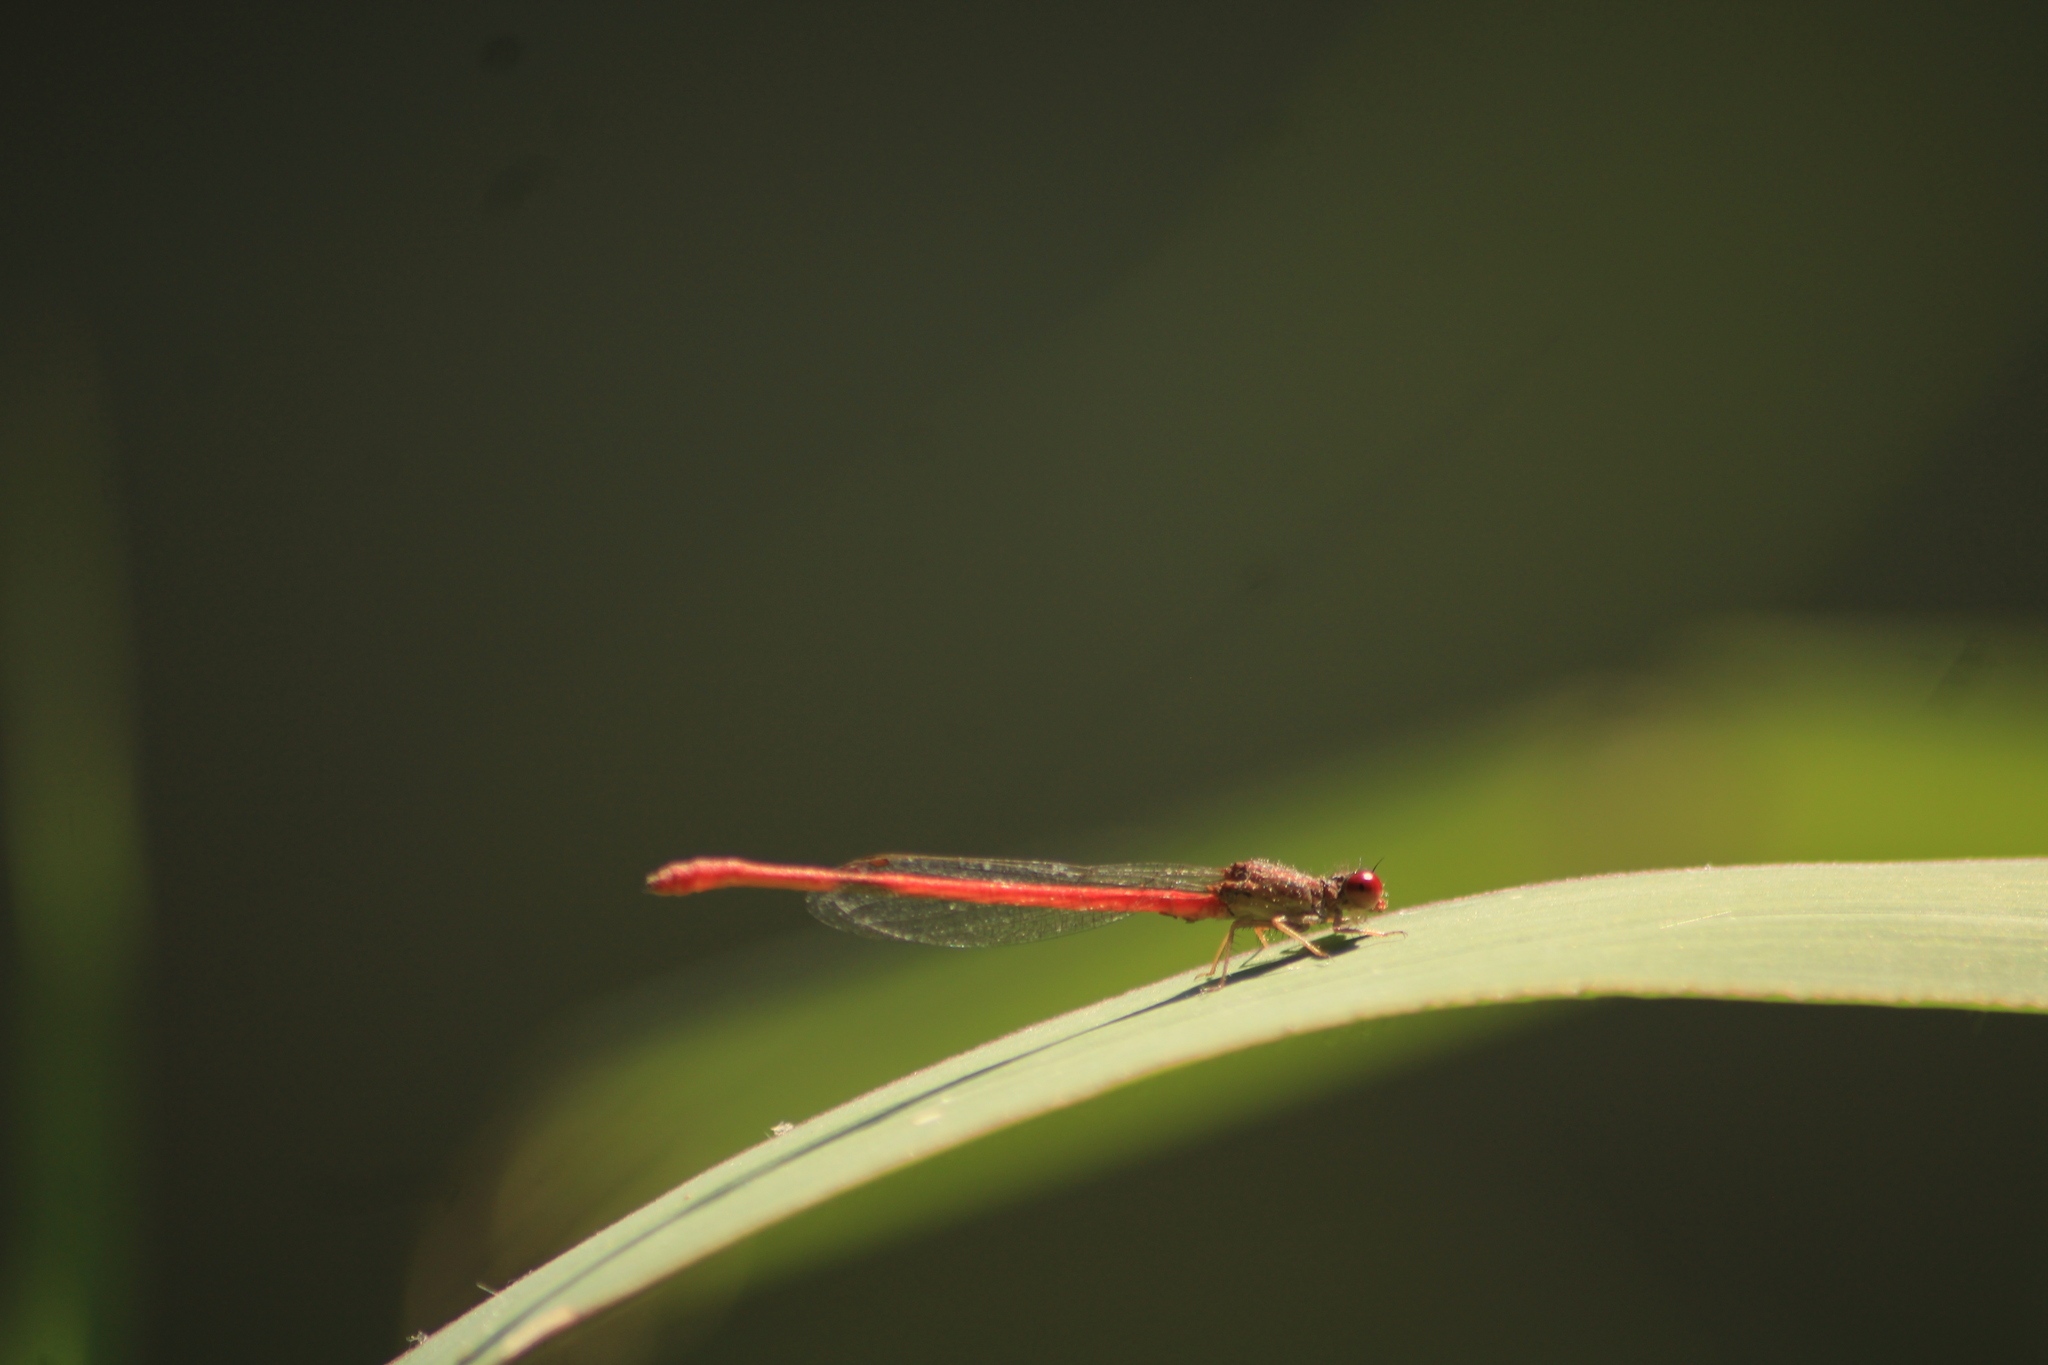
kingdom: Animalia
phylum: Arthropoda
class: Insecta
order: Odonata
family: Coenagrionidae
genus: Telebasis
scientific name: Telebasis salva
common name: Desert firetail
